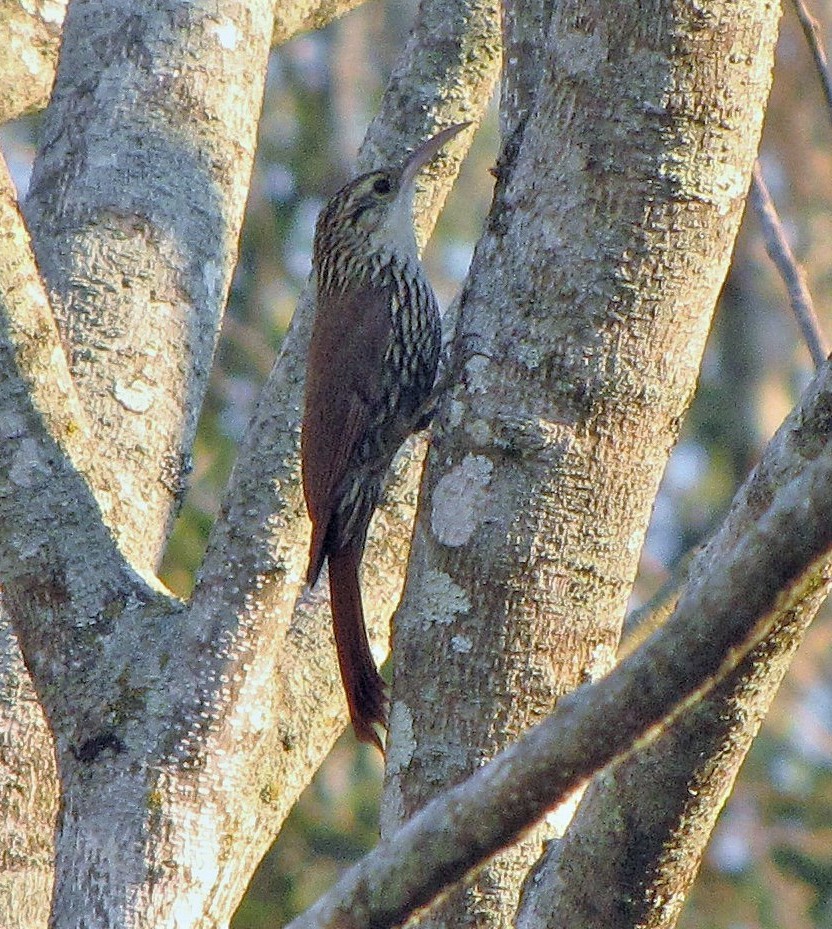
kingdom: Animalia
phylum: Chordata
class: Aves
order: Passeriformes
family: Furnariidae
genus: Lepidocolaptes
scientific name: Lepidocolaptes falcinellus
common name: Scalloped woodcreeper
